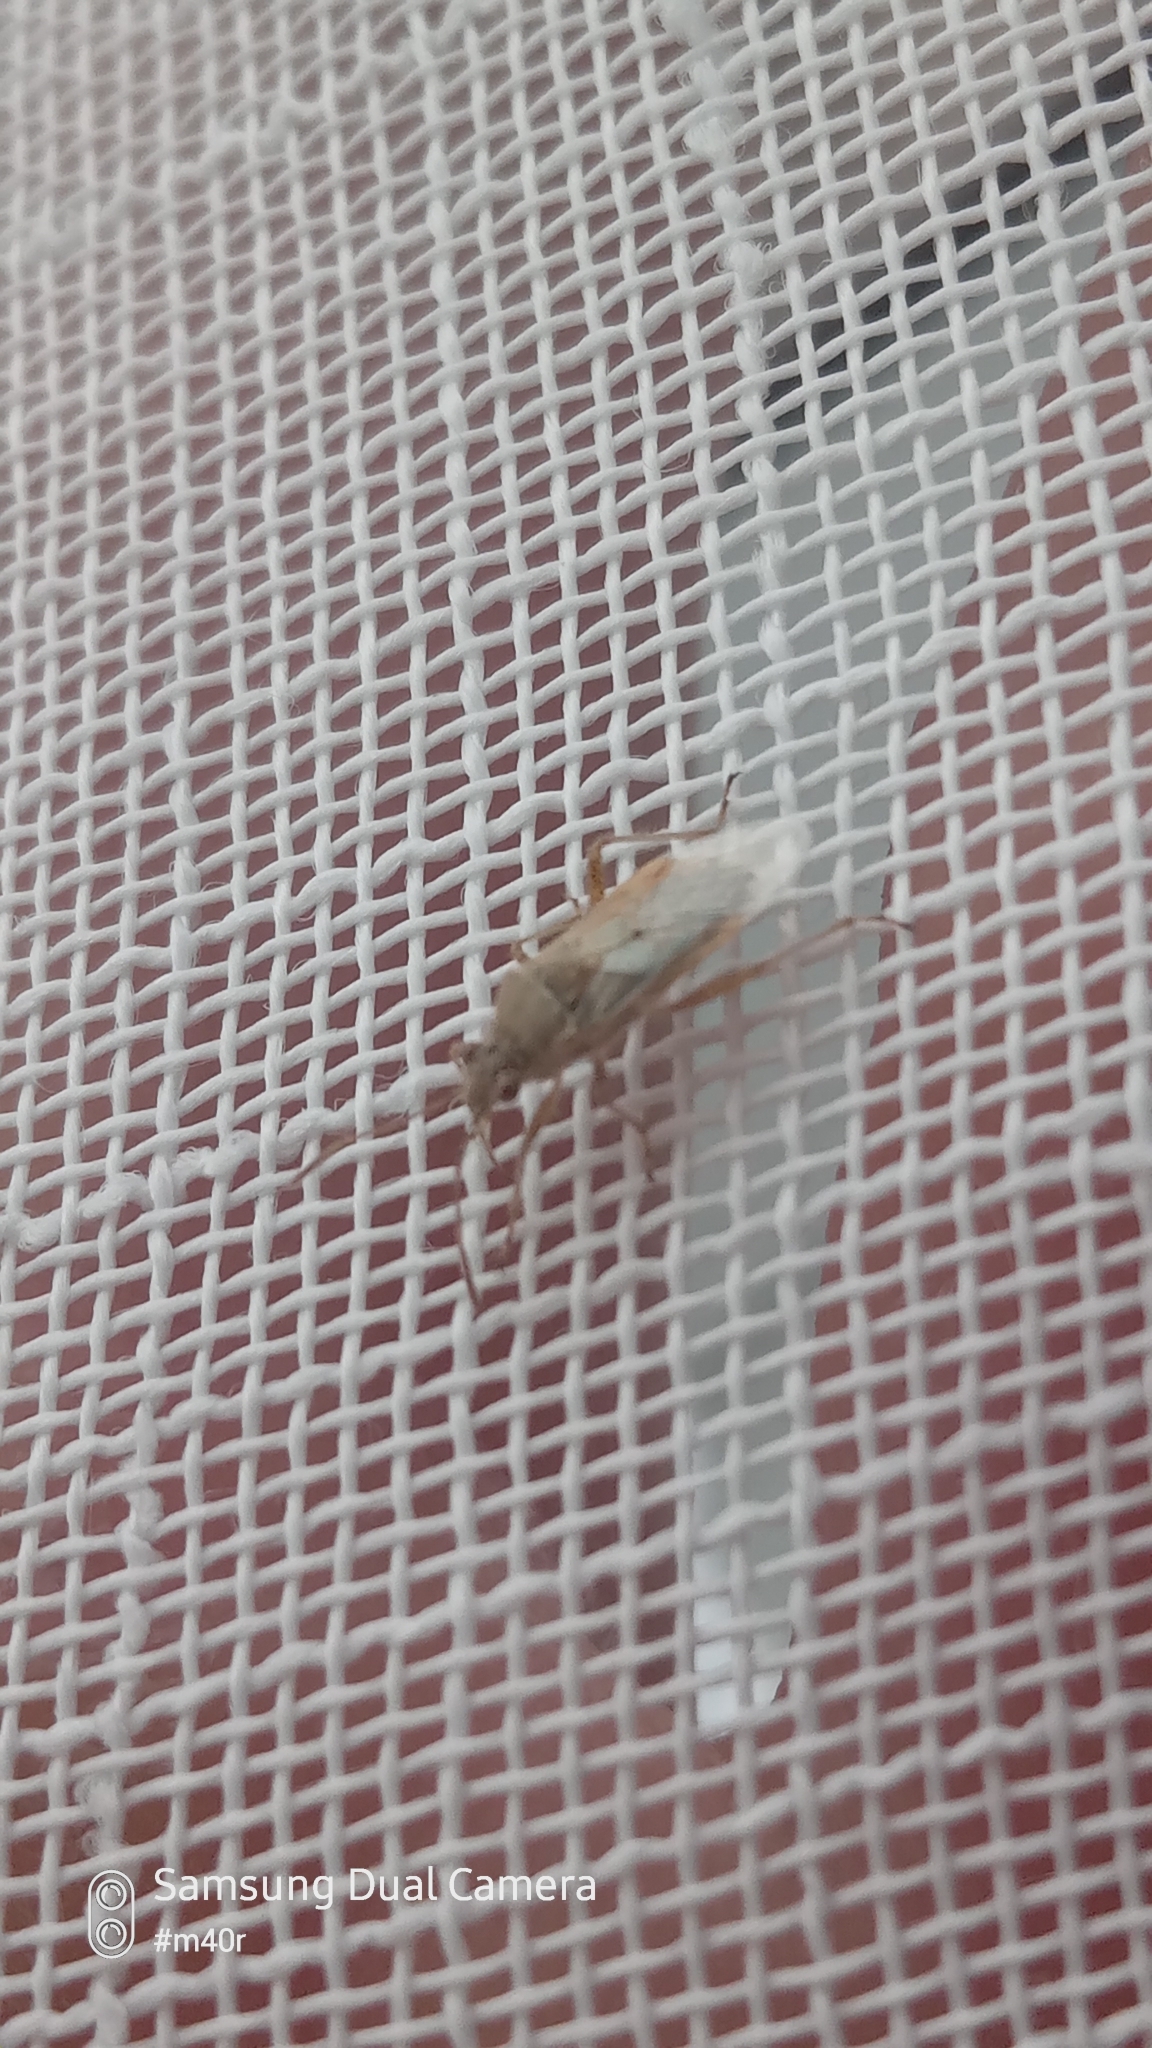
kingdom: Animalia
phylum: Arthropoda
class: Insecta
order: Lepidoptera
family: Noctuidae
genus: Anarta
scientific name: Anarta trifolii
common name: Clover cutworm moth
